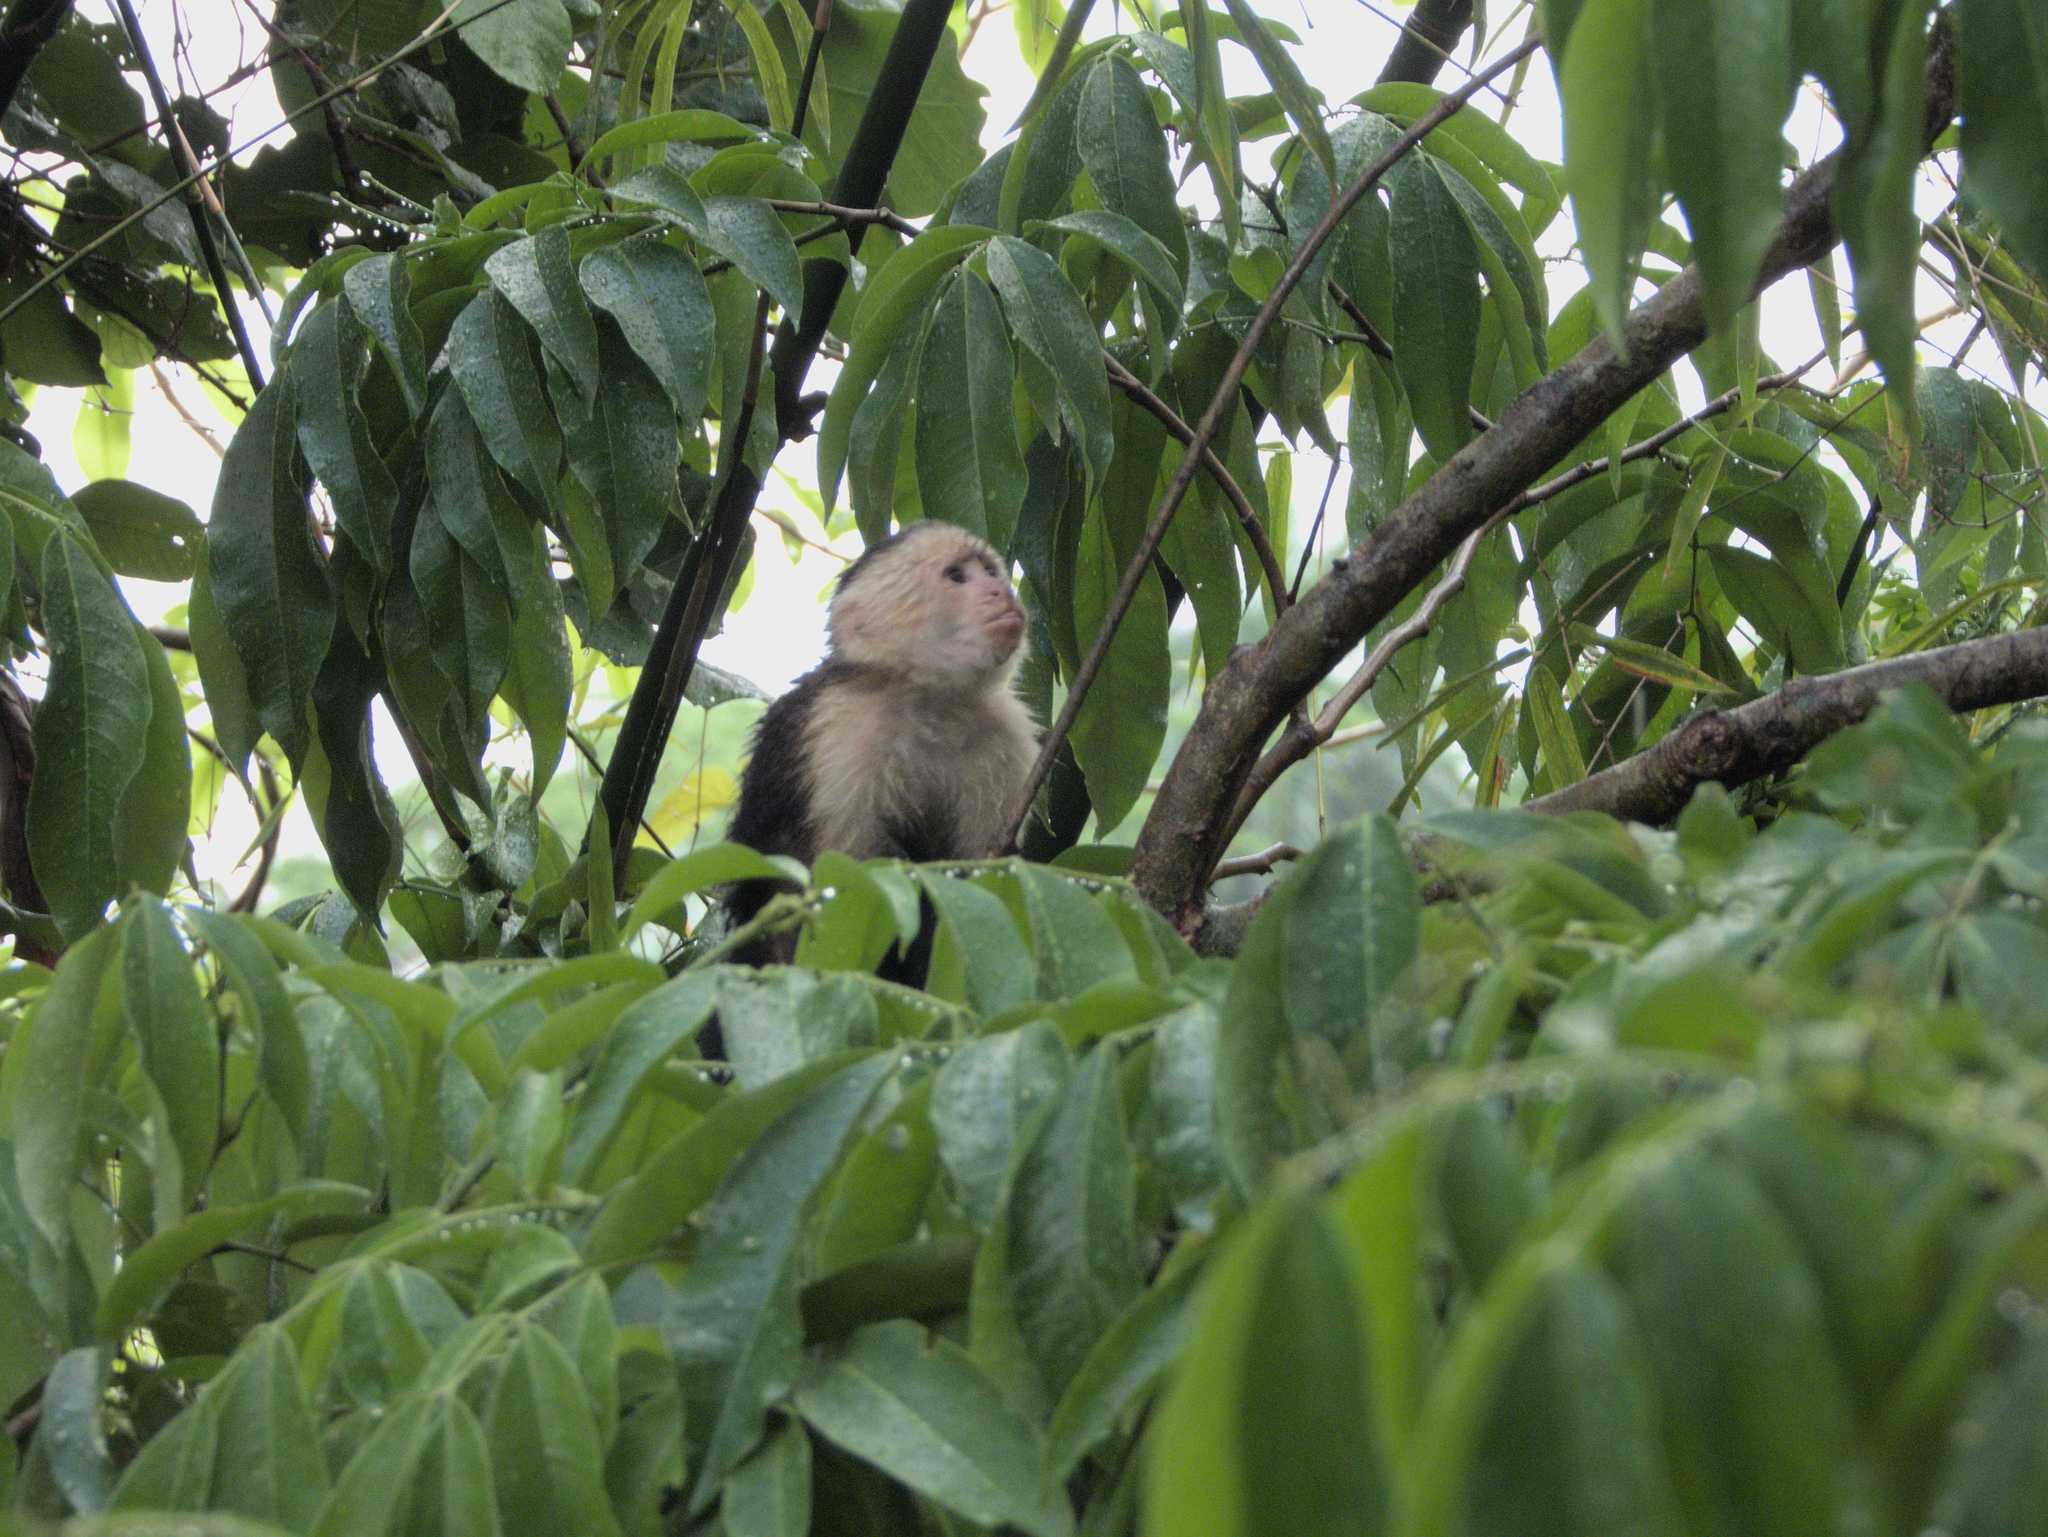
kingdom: Animalia
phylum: Chordata
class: Mammalia
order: Primates
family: Cebidae
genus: Cebus
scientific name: Cebus imitator
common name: Panamanian white-faced capuchin
